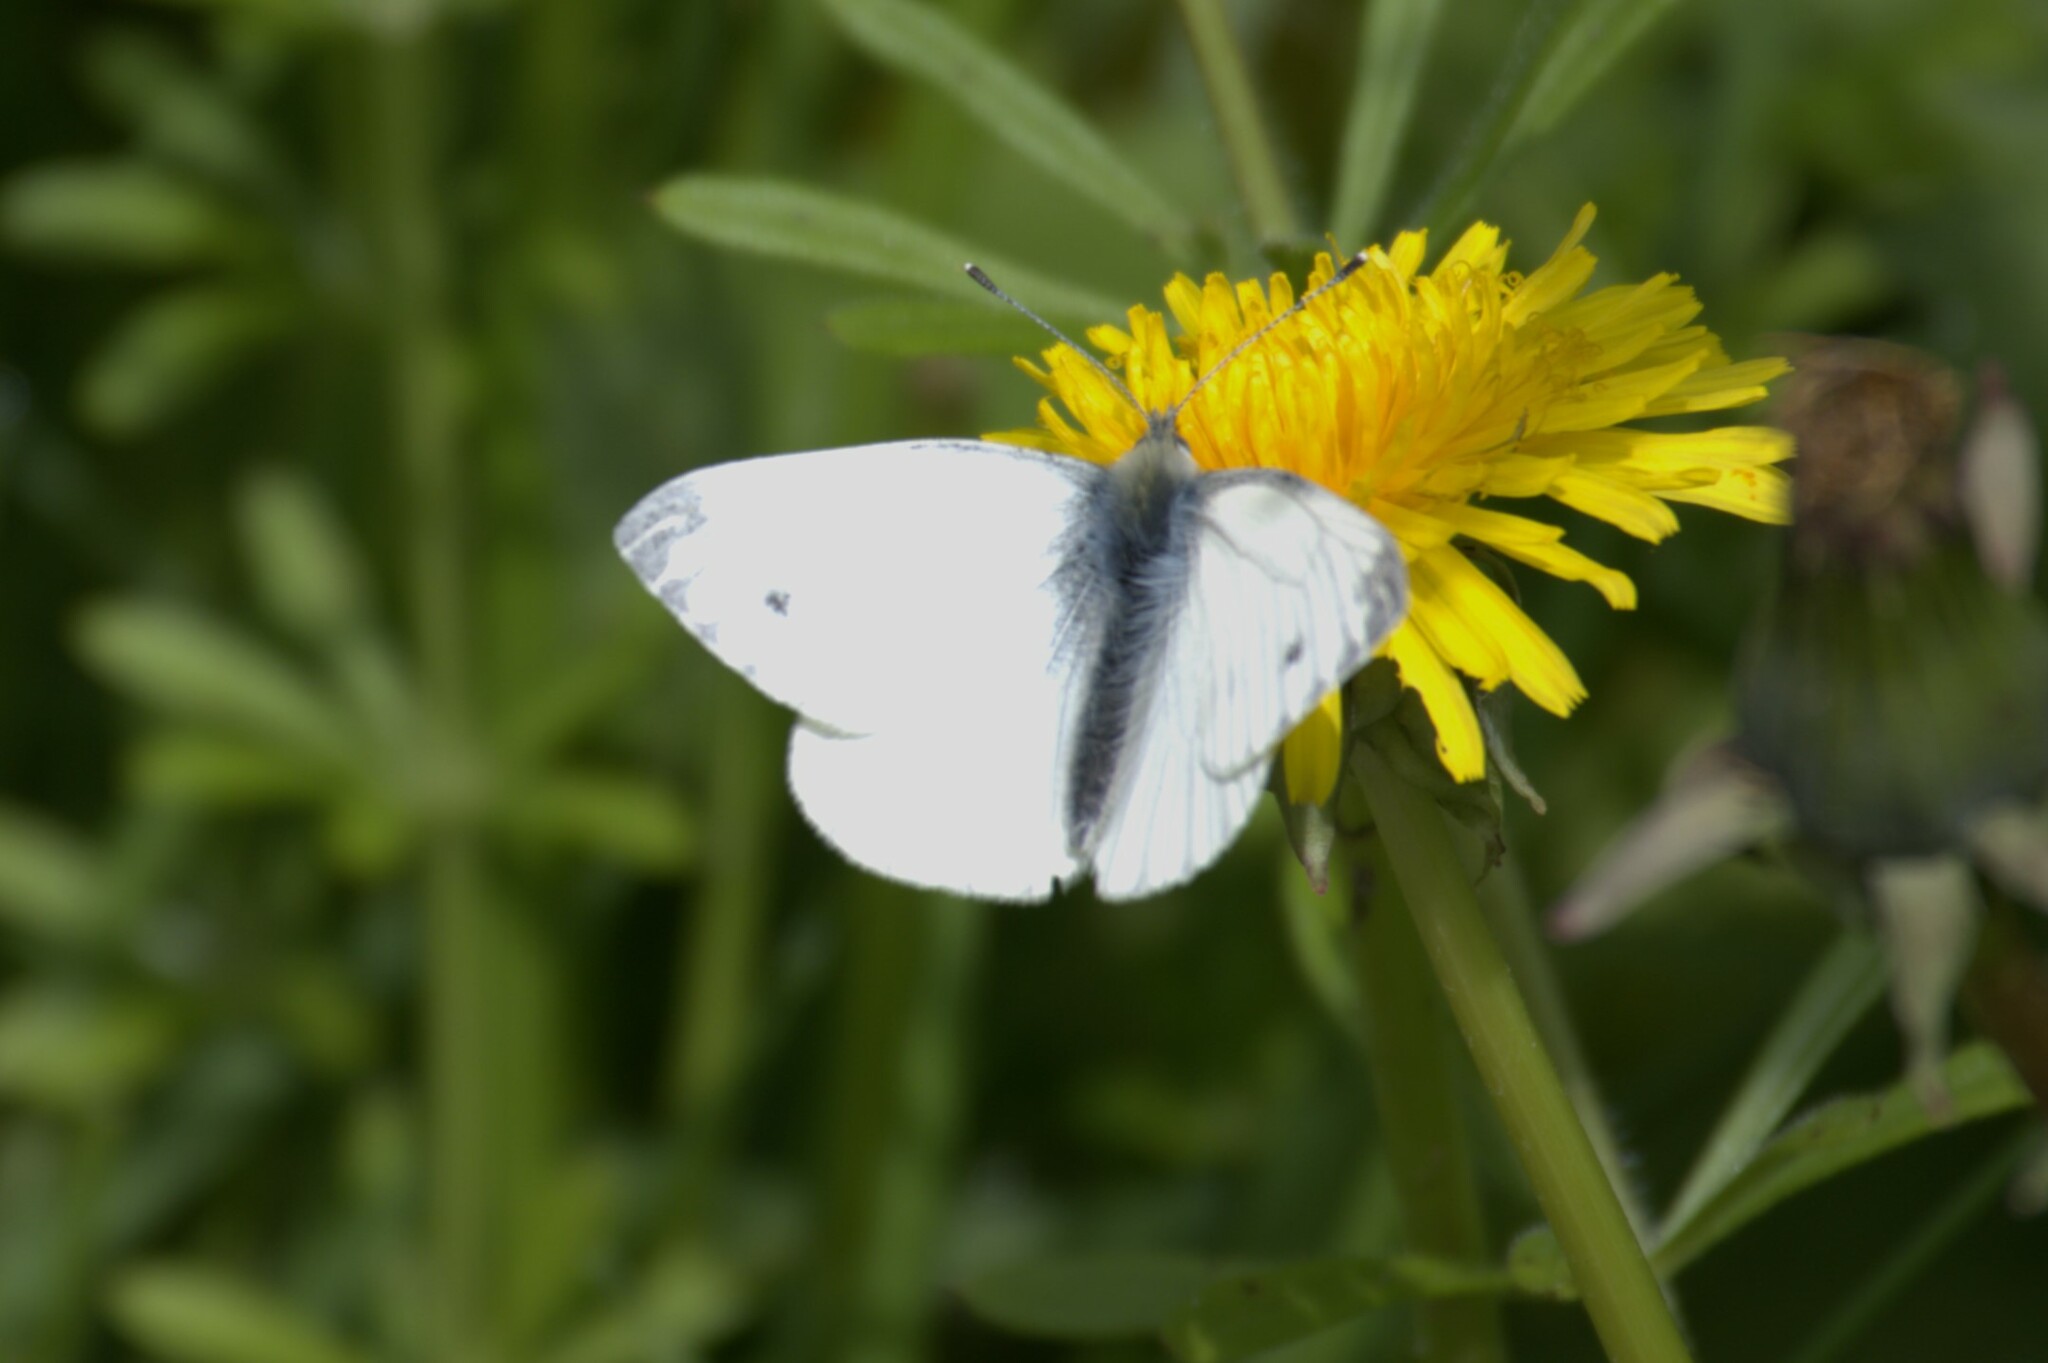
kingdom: Animalia
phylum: Arthropoda
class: Insecta
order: Lepidoptera
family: Pieridae
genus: Pieris
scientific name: Pieris napi
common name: Green-veined white
